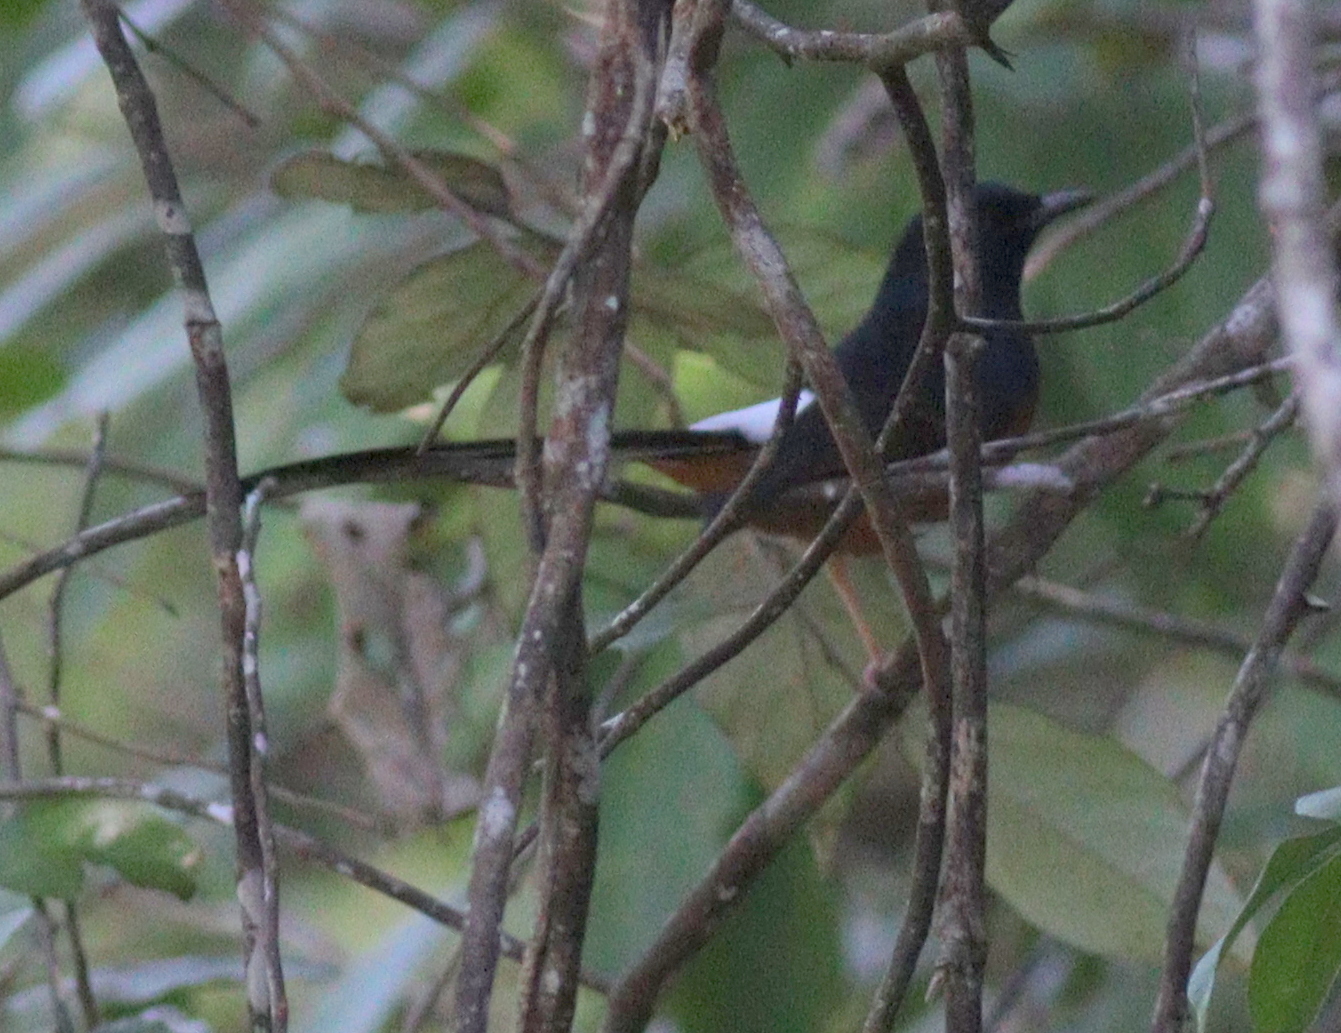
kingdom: Animalia
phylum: Chordata
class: Aves
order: Passeriformes
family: Muscicapidae
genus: Copsychus
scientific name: Copsychus malabaricus
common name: White-rumped shama
